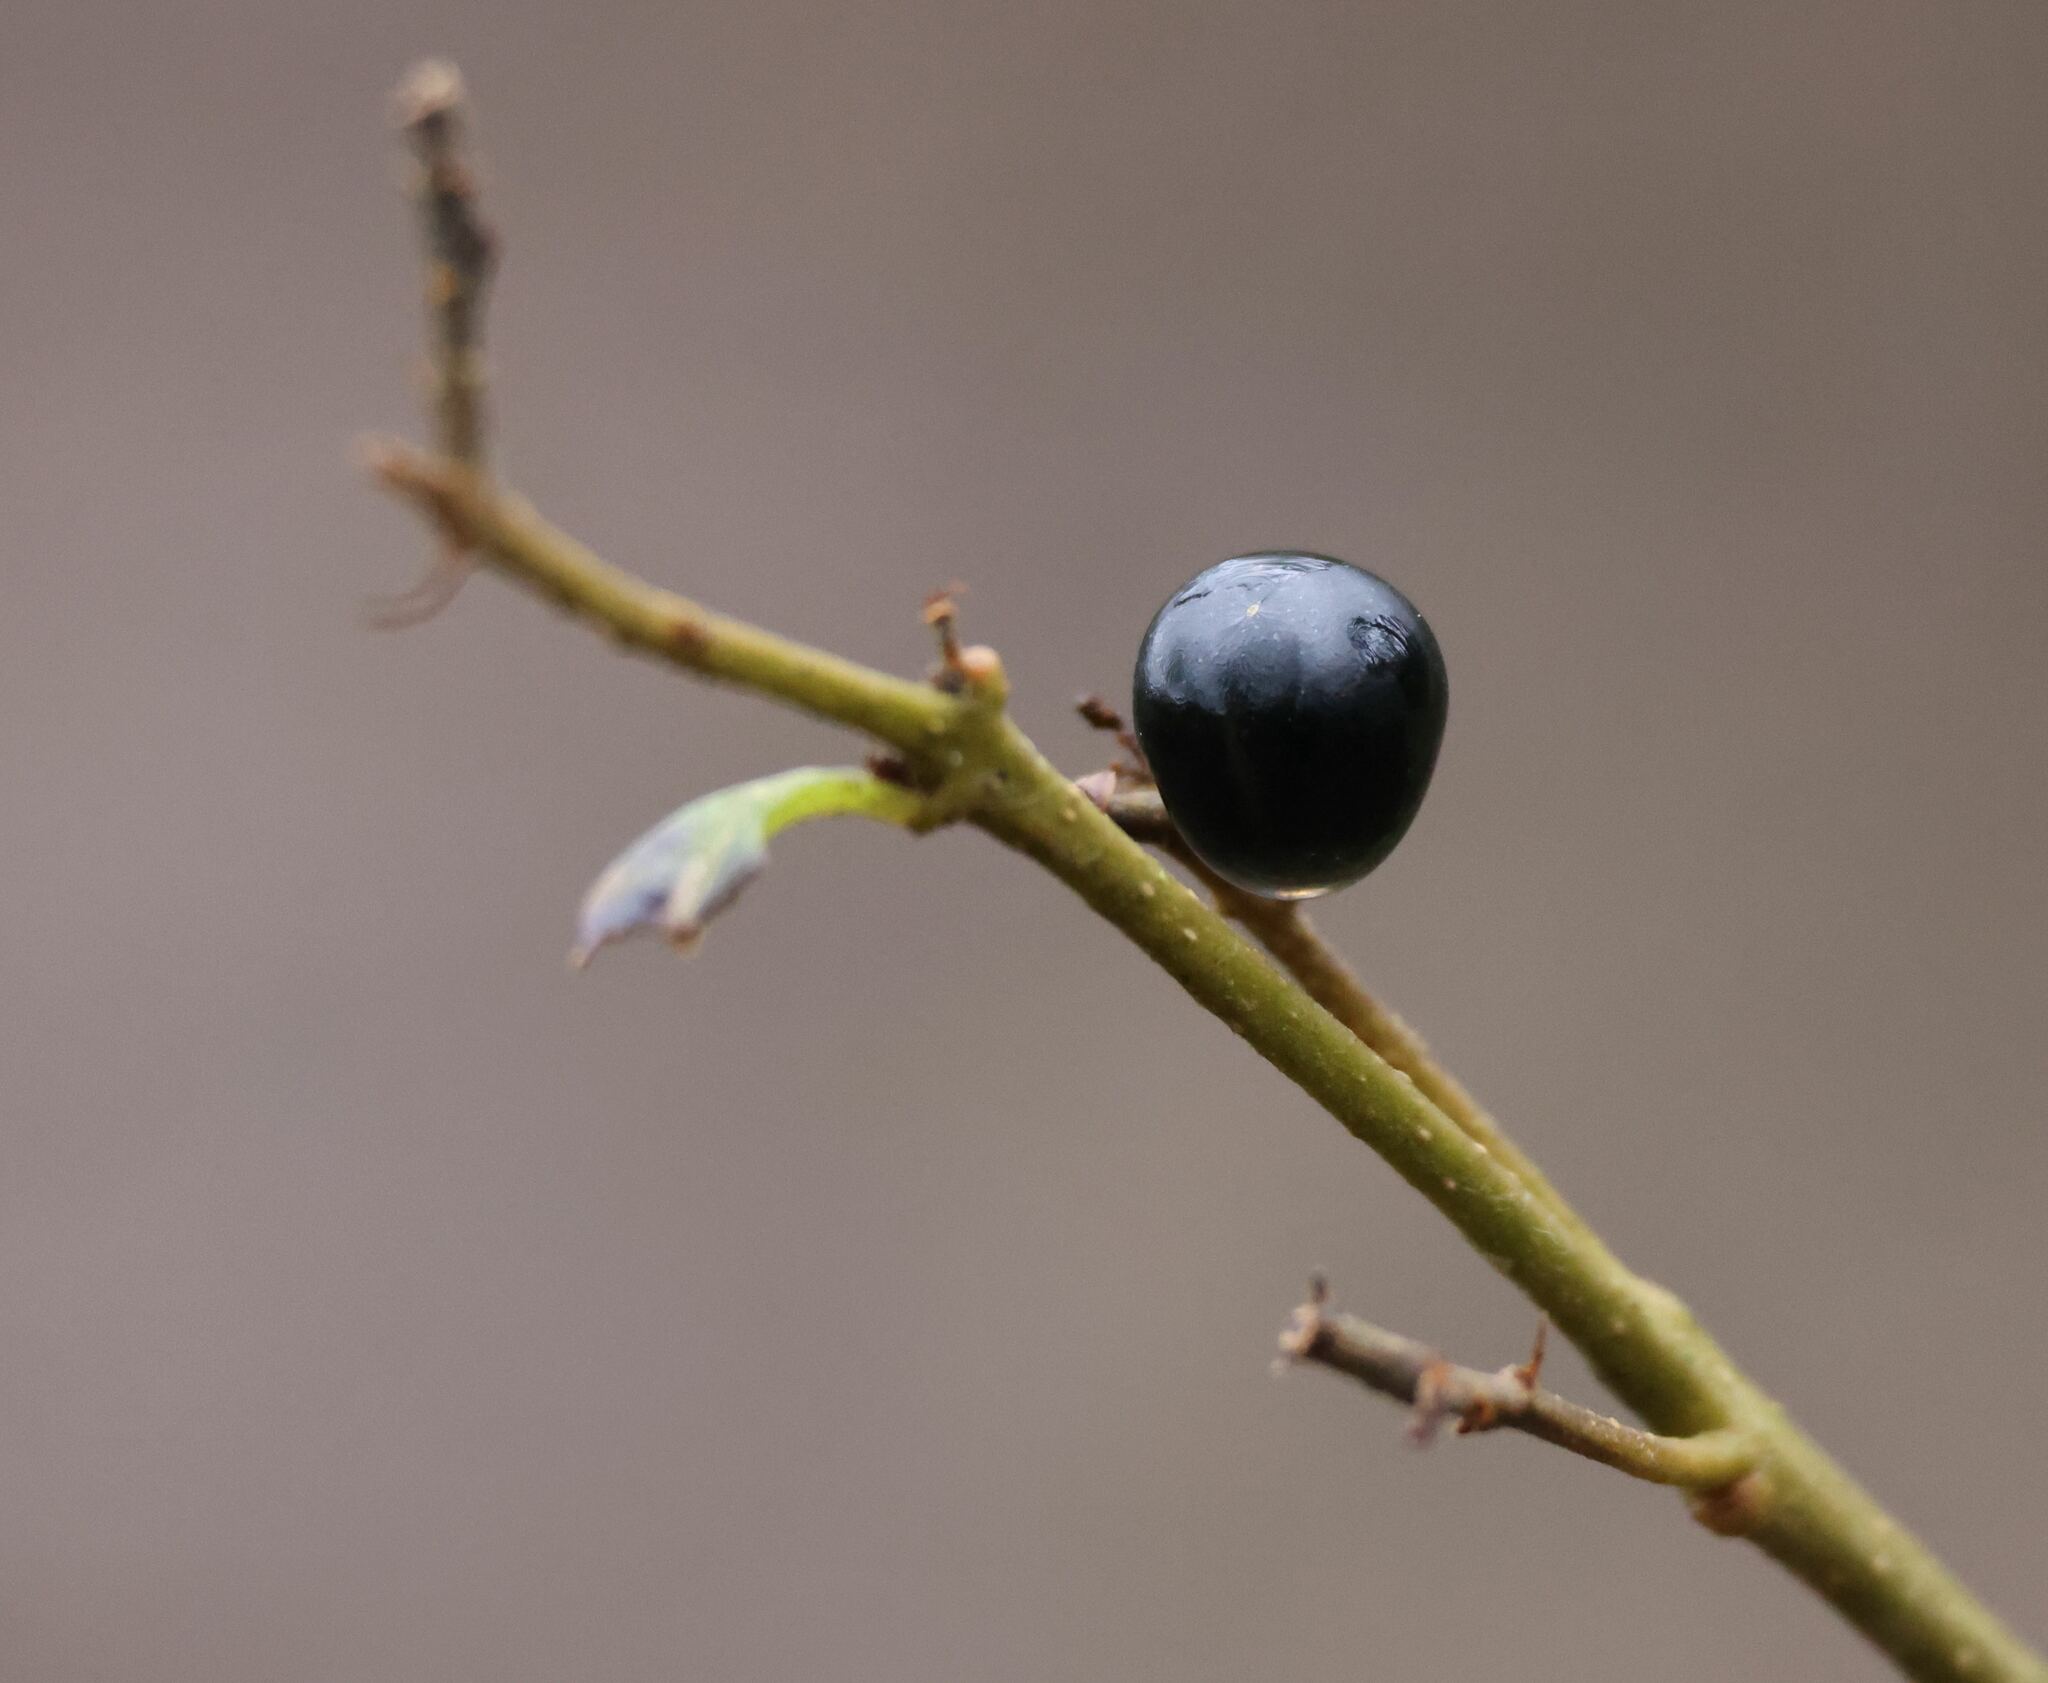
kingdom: Plantae
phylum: Tracheophyta
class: Magnoliopsida
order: Lamiales
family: Oleaceae
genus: Ligustrum
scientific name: Ligustrum vulgare
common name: Wild privet
